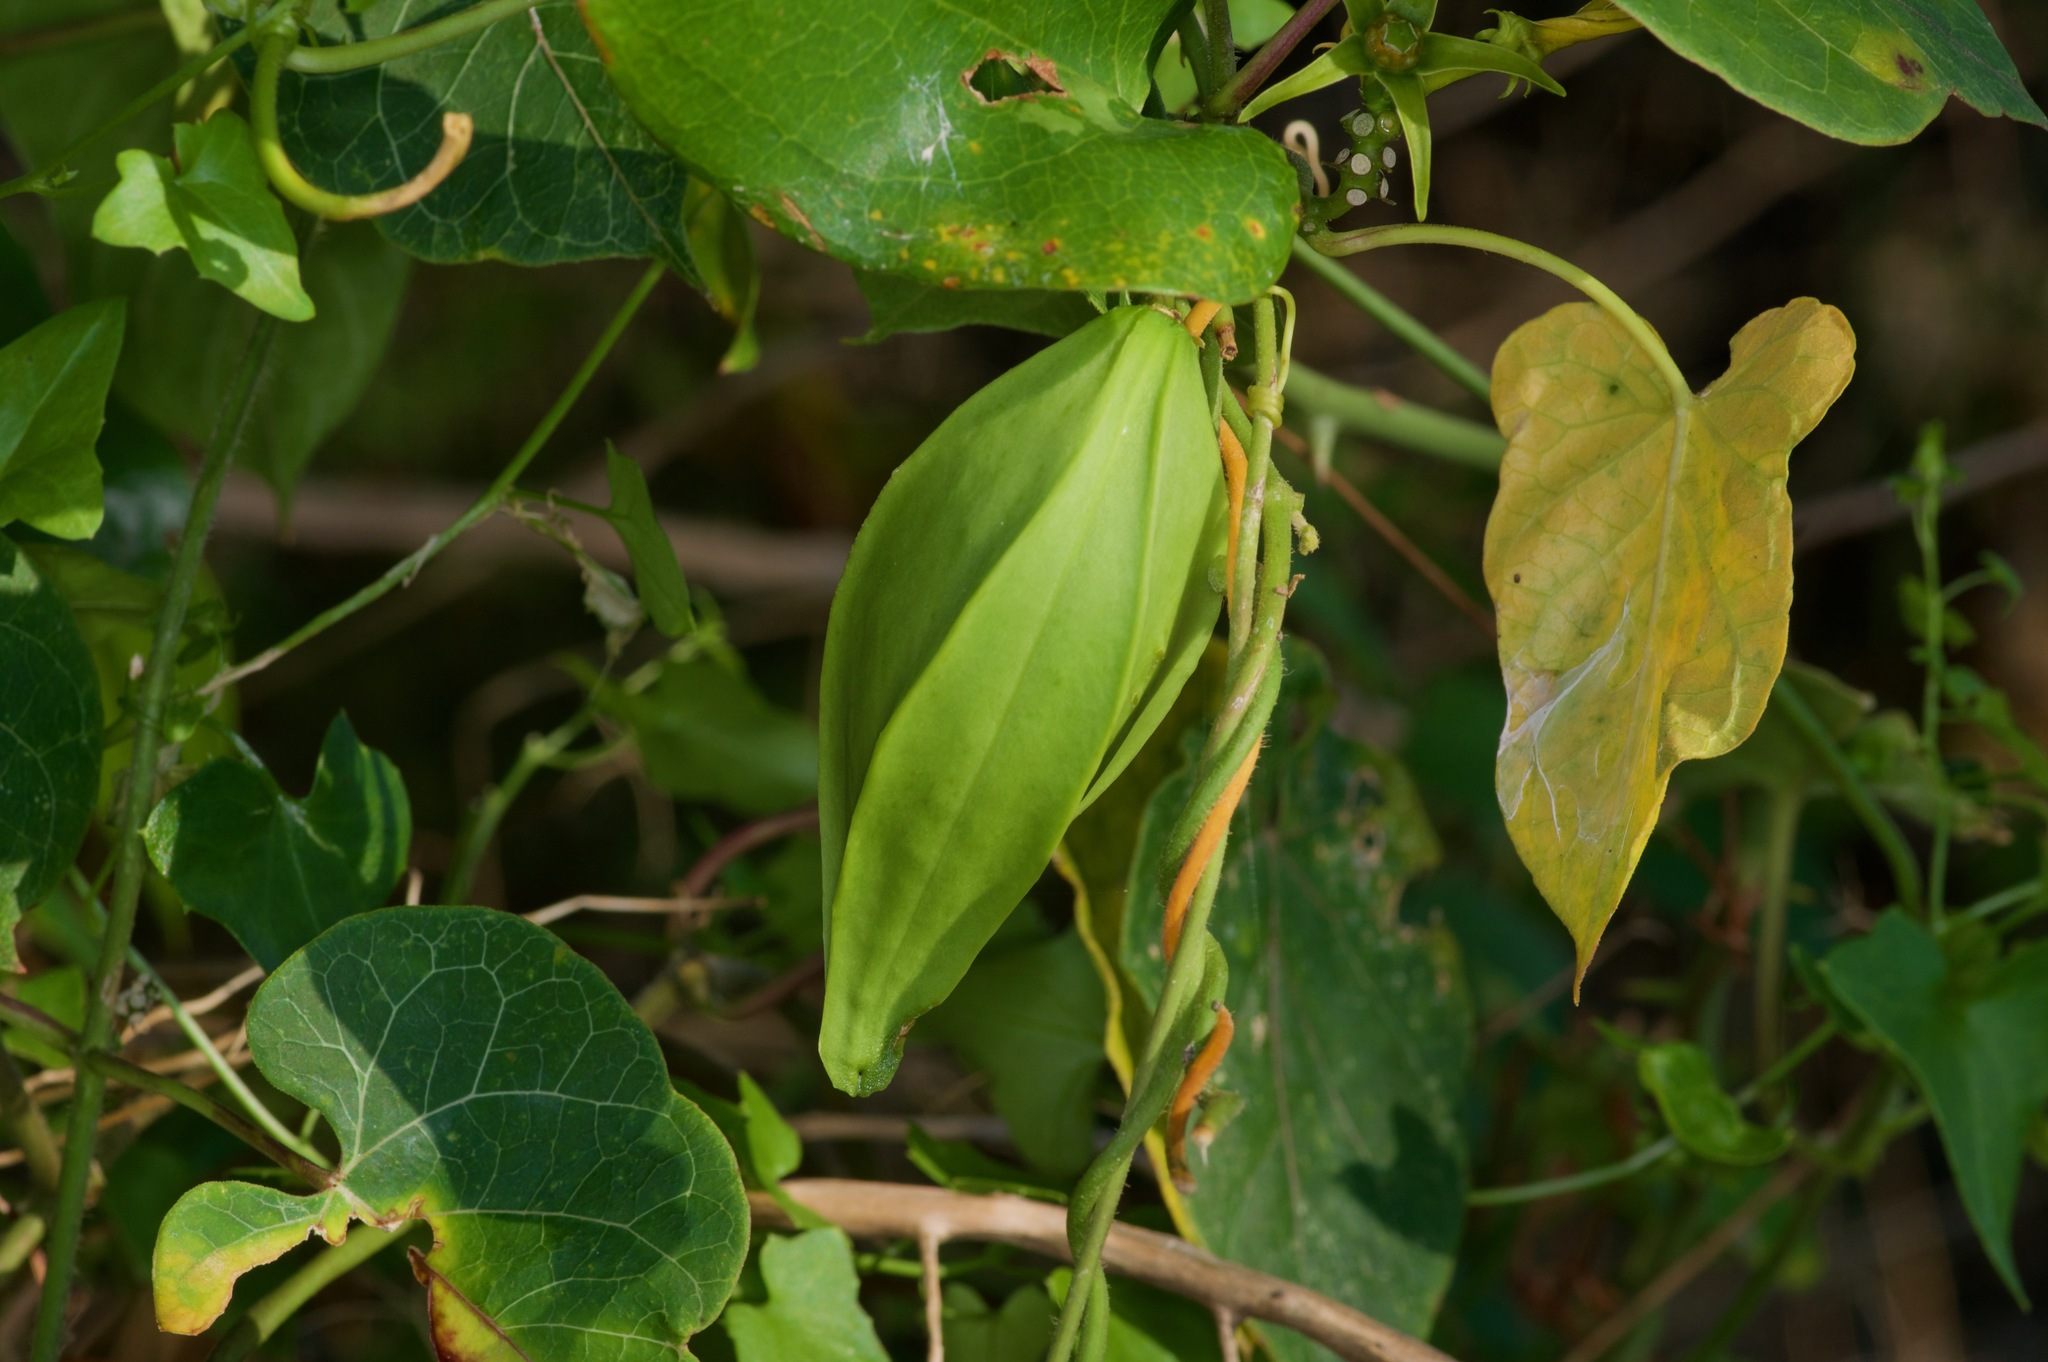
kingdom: Plantae
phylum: Tracheophyta
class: Magnoliopsida
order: Gentianales
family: Apocynaceae
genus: Gonolobus
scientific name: Gonolobus suberosus
